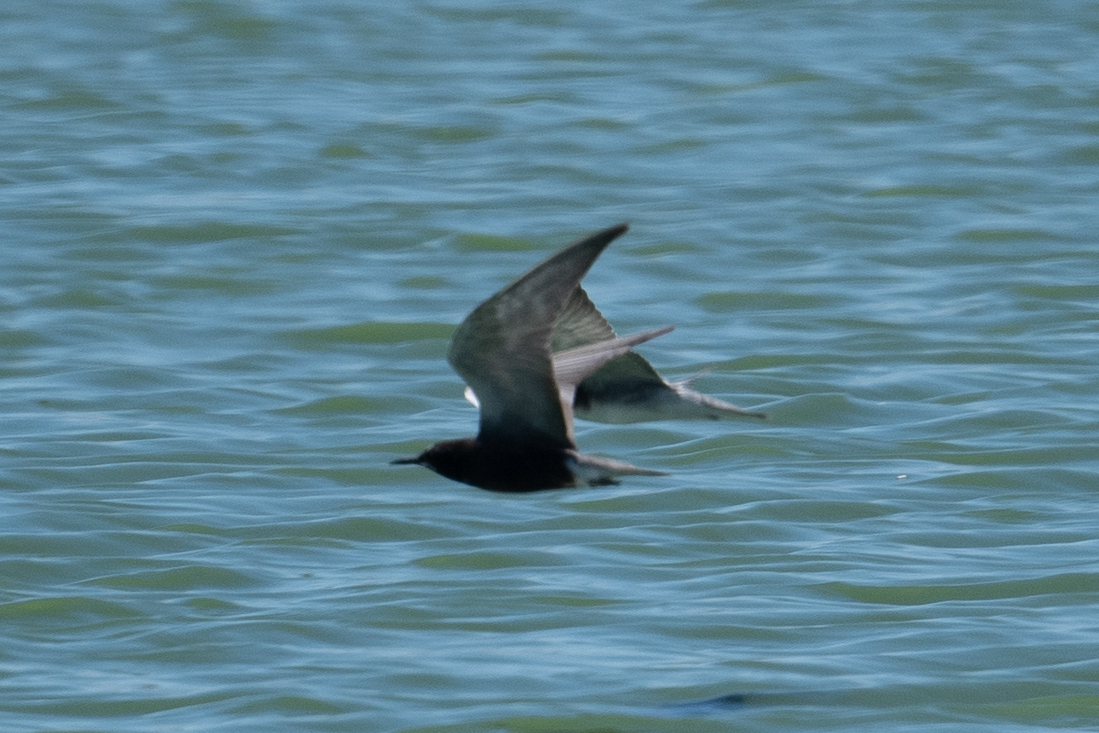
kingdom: Animalia
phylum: Chordata
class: Aves
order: Charadriiformes
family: Laridae
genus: Chlidonias
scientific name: Chlidonias niger
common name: Black tern
